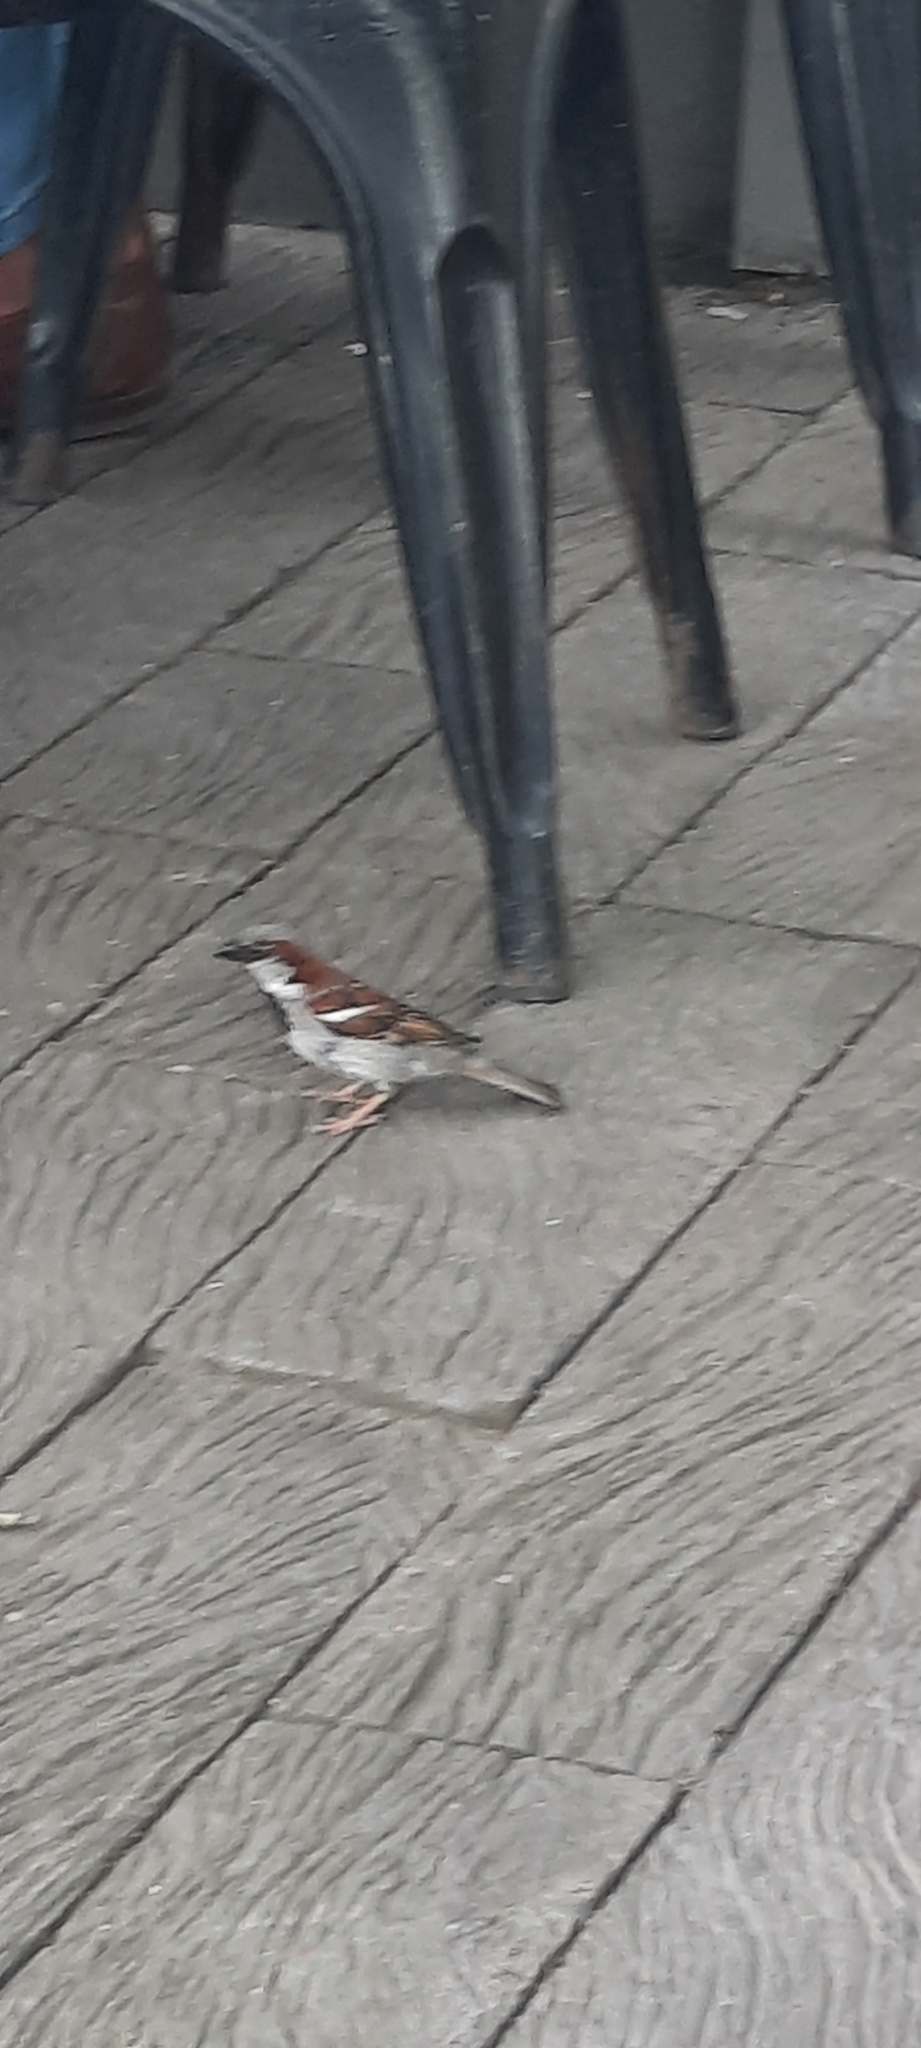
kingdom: Animalia
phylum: Chordata
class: Aves
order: Passeriformes
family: Passeridae
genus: Passer
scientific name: Passer domesticus
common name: House sparrow
